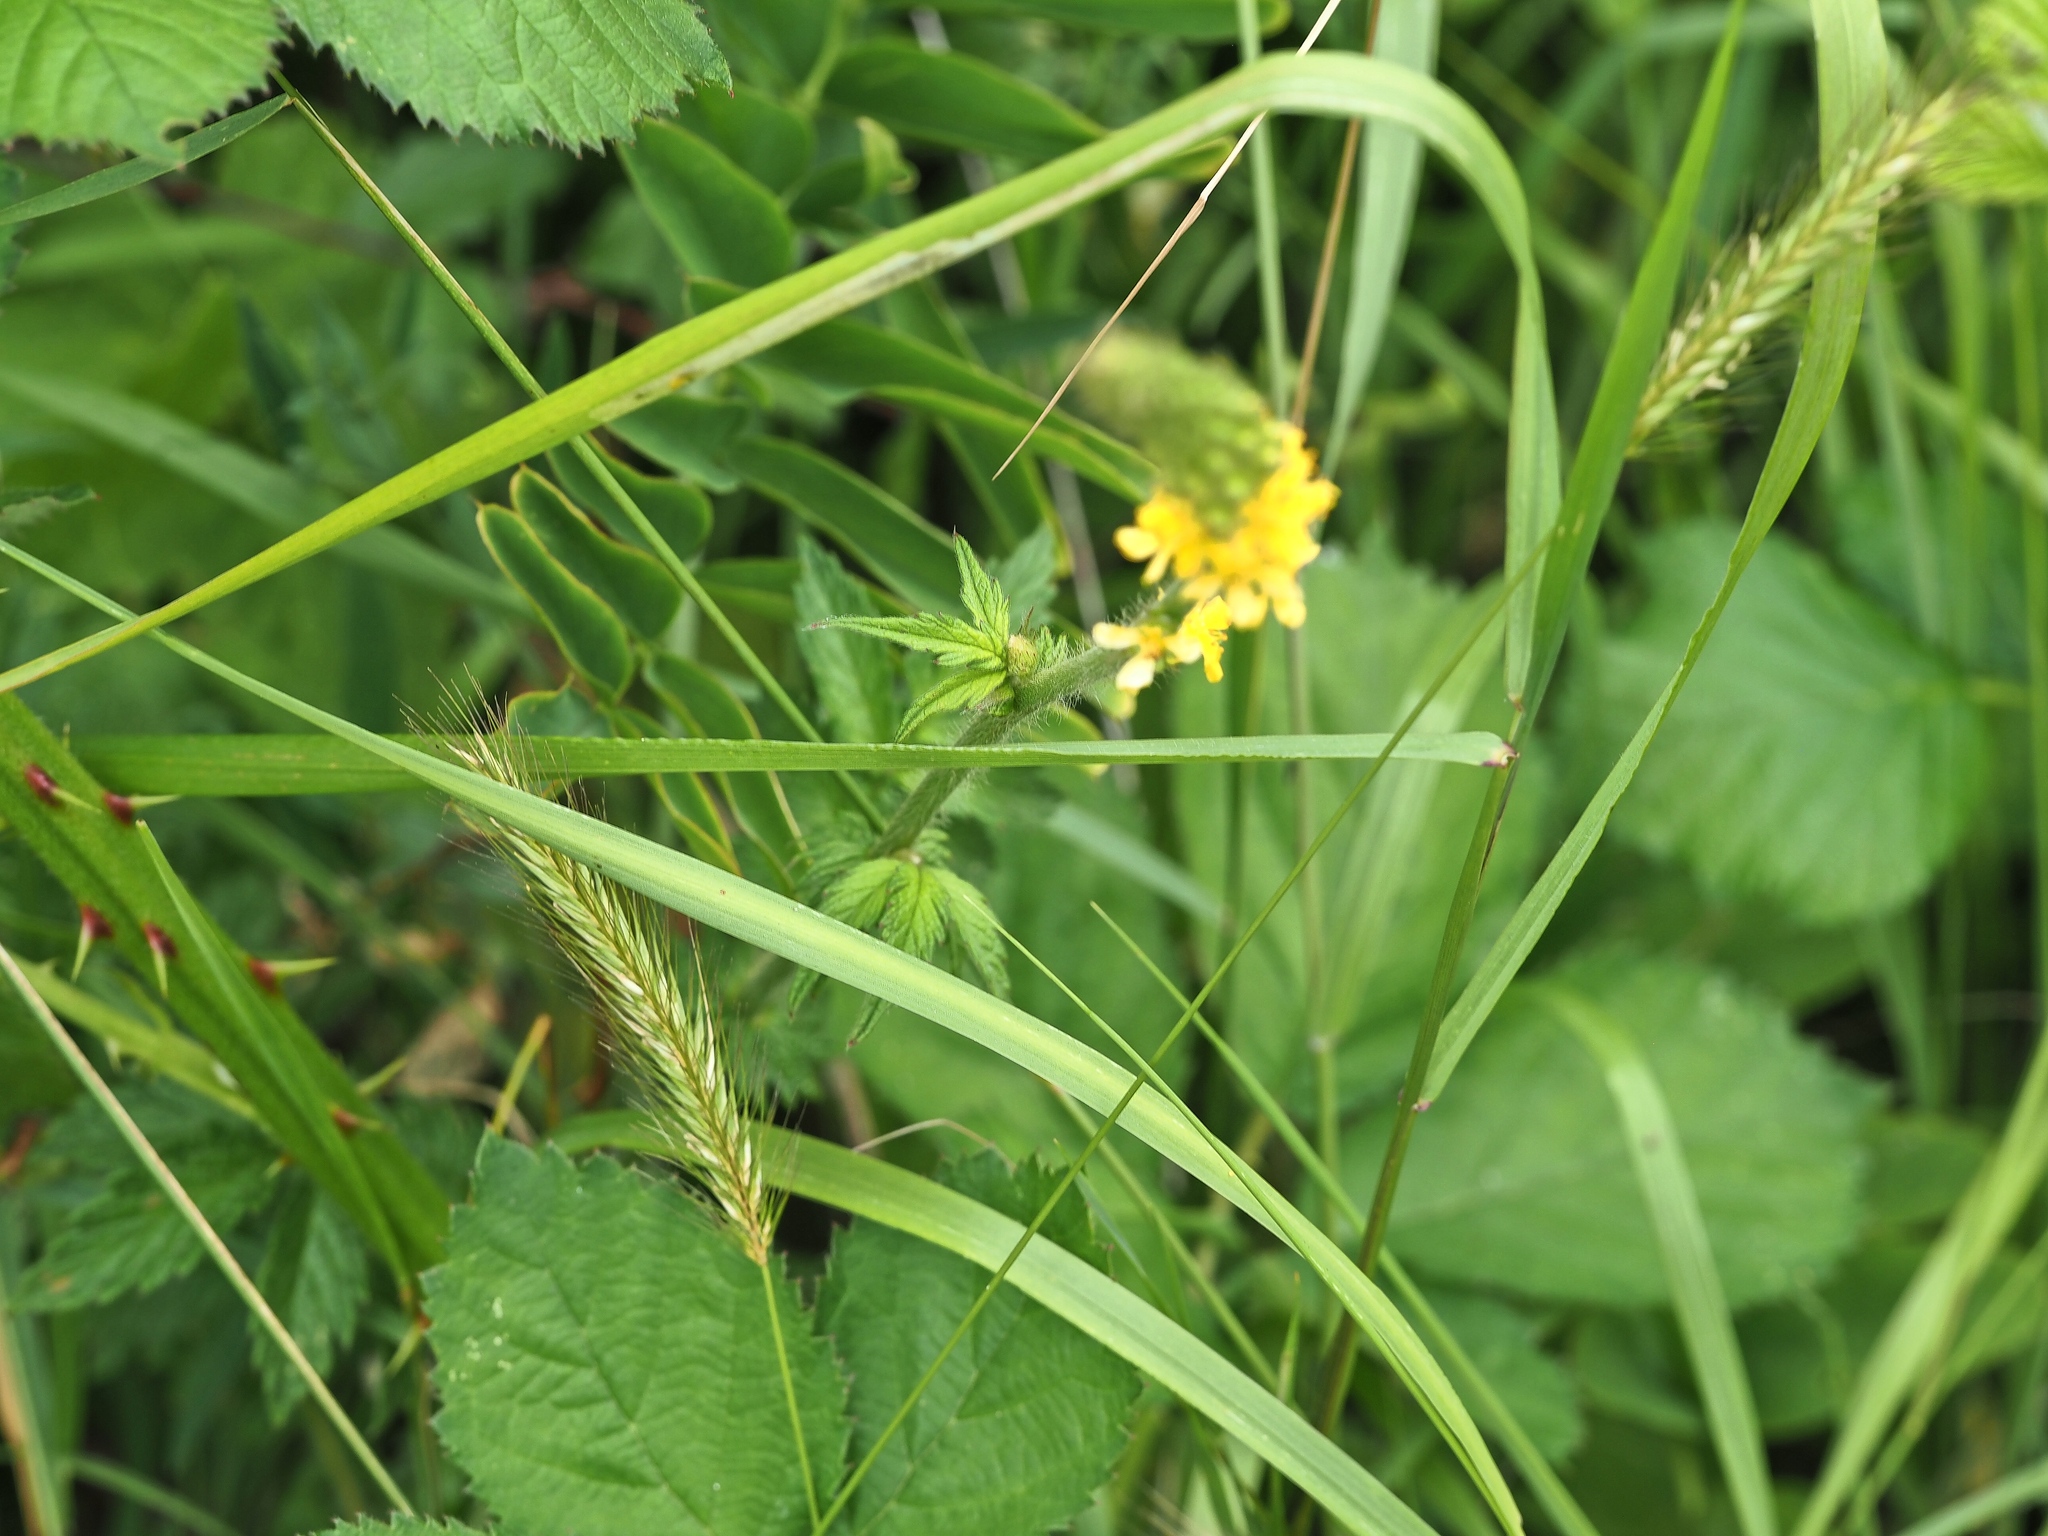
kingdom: Plantae
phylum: Tracheophyta
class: Magnoliopsida
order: Rosales
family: Rosaceae
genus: Agrimonia
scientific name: Agrimonia eupatoria
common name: Agrimony
